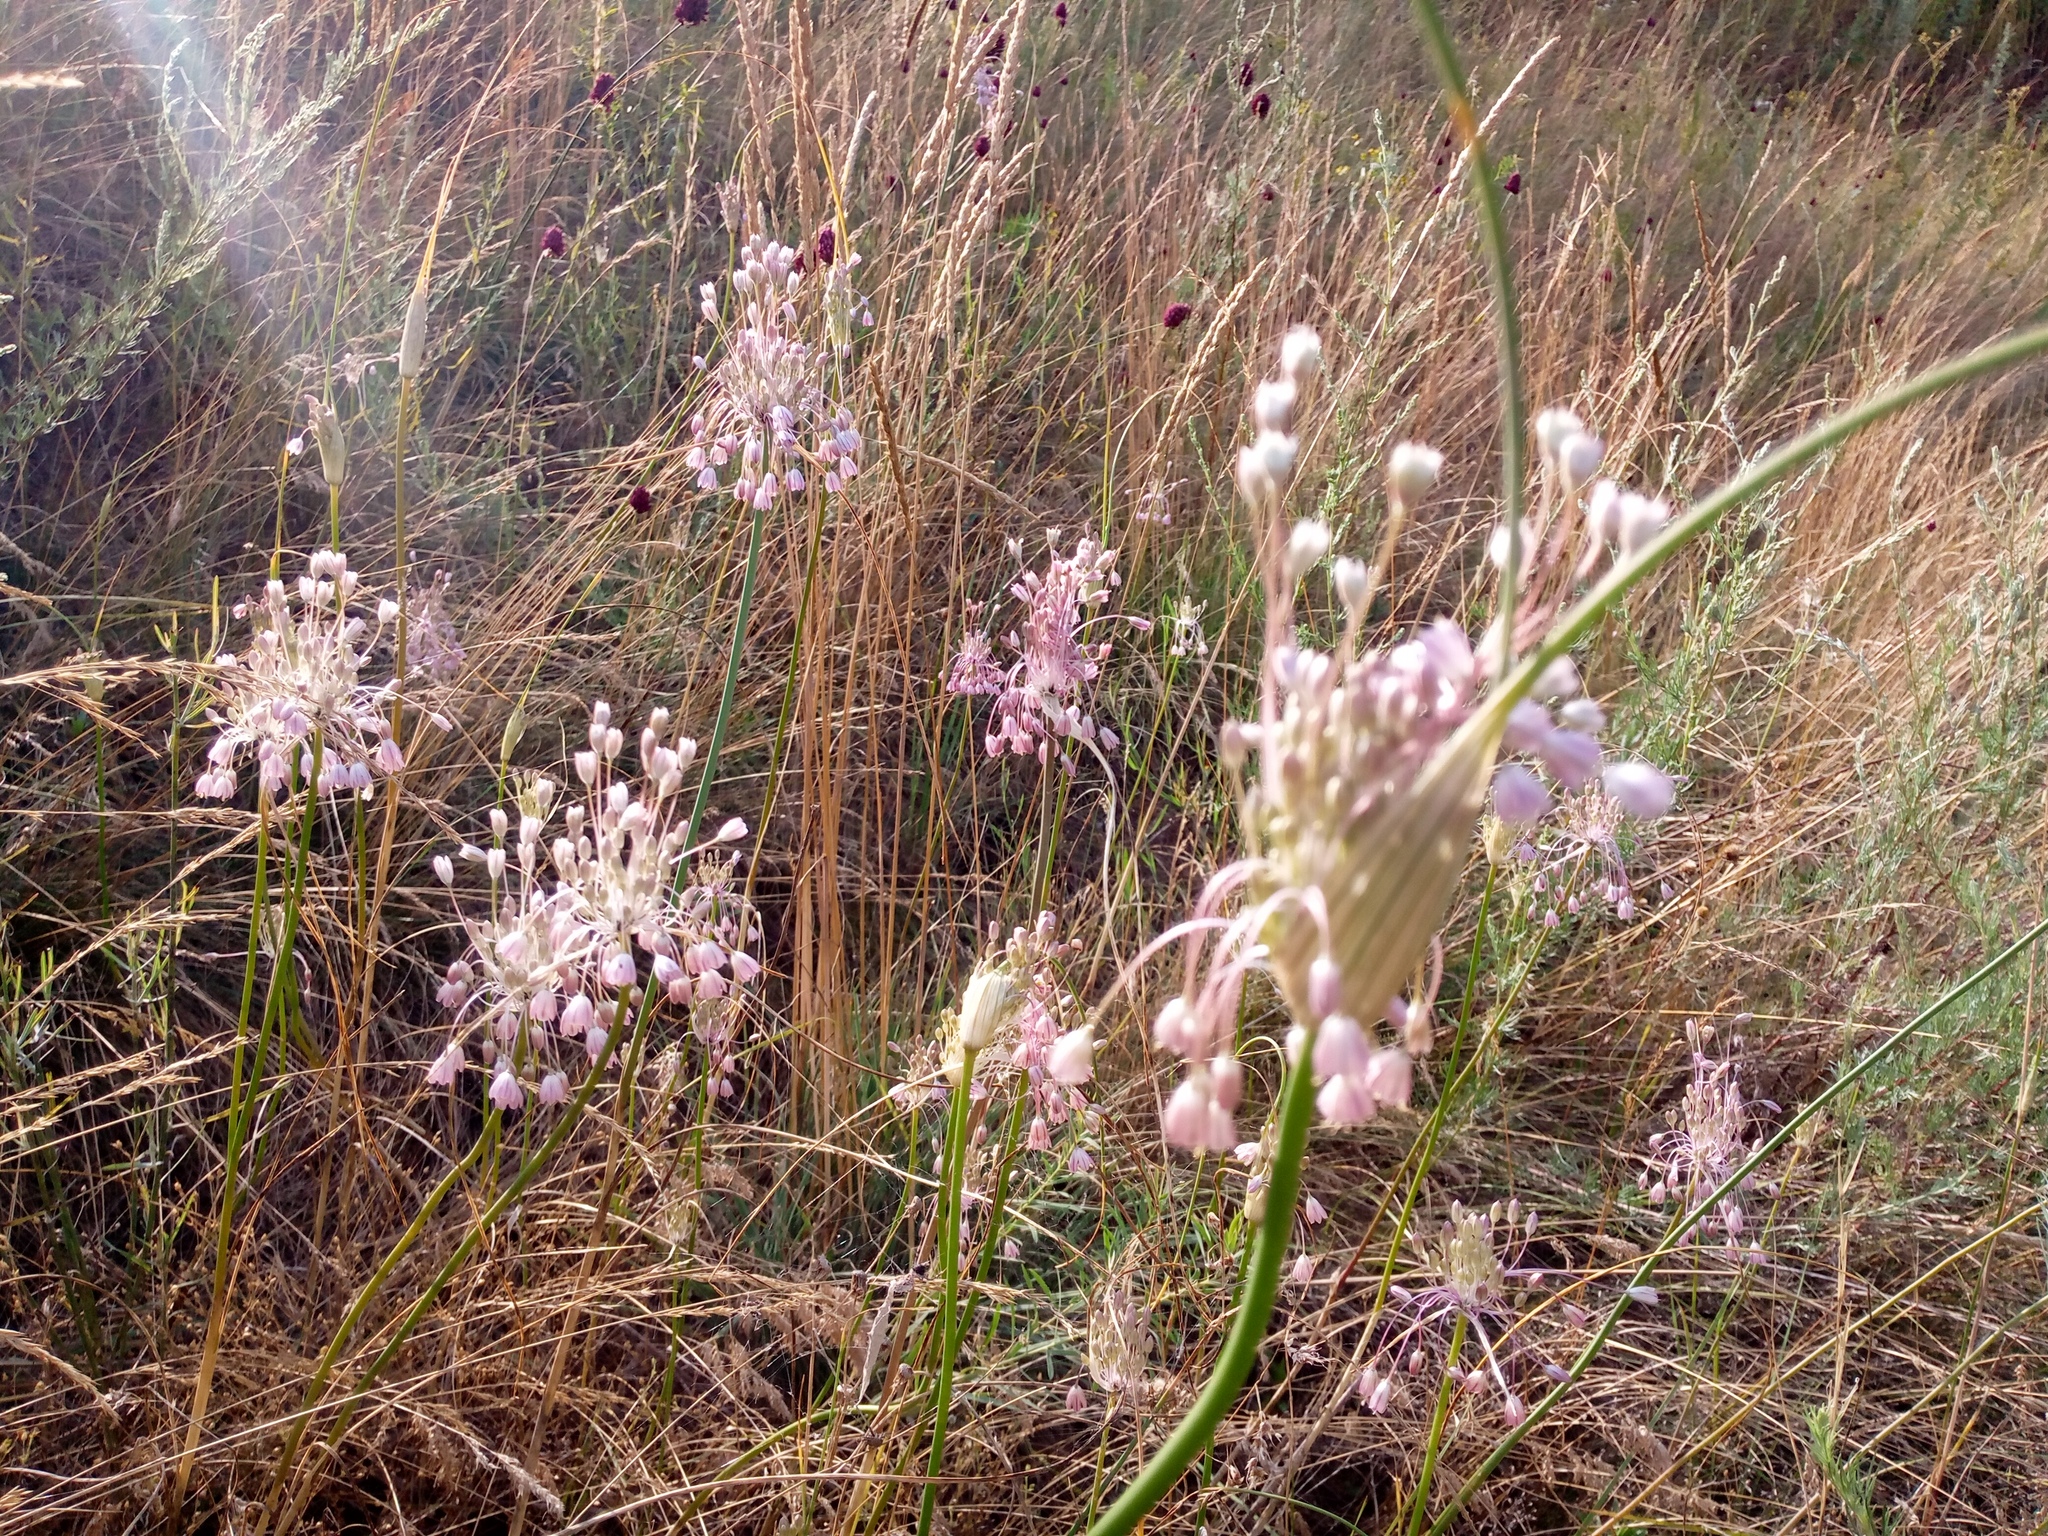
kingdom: Plantae
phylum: Tracheophyta
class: Liliopsida
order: Asparagales
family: Amaryllidaceae
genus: Allium
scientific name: Allium paniculatum
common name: Pale garlic
